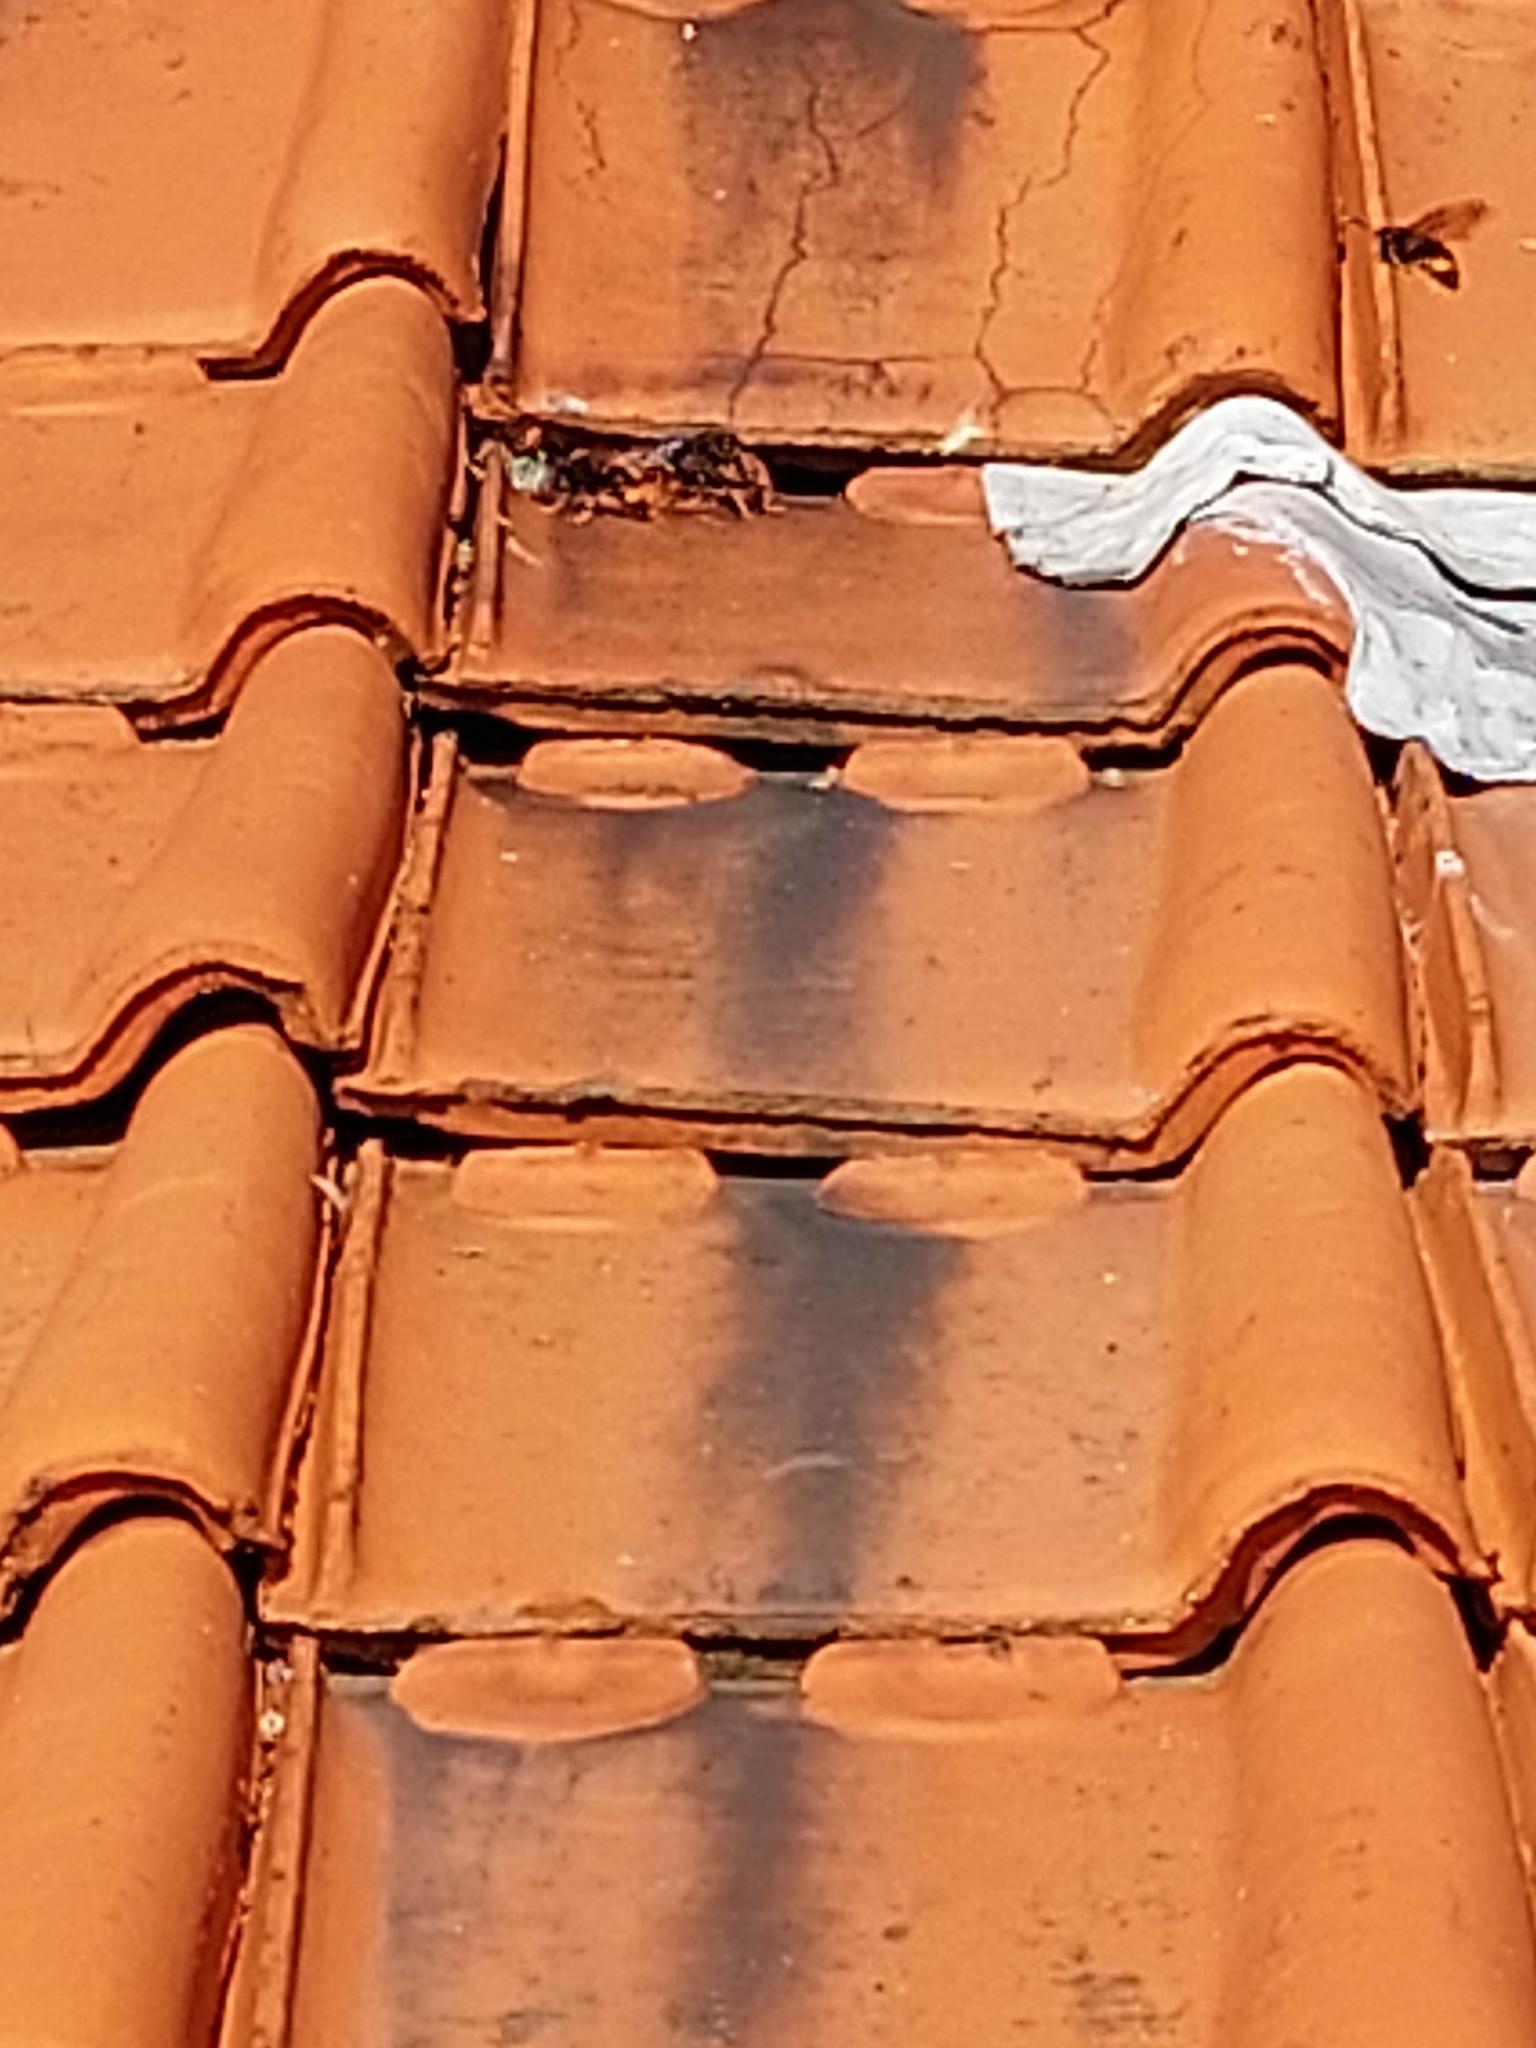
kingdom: Animalia
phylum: Arthropoda
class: Insecta
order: Hymenoptera
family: Vespidae
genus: Vespa
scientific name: Vespa velutina
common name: Asian hornet
